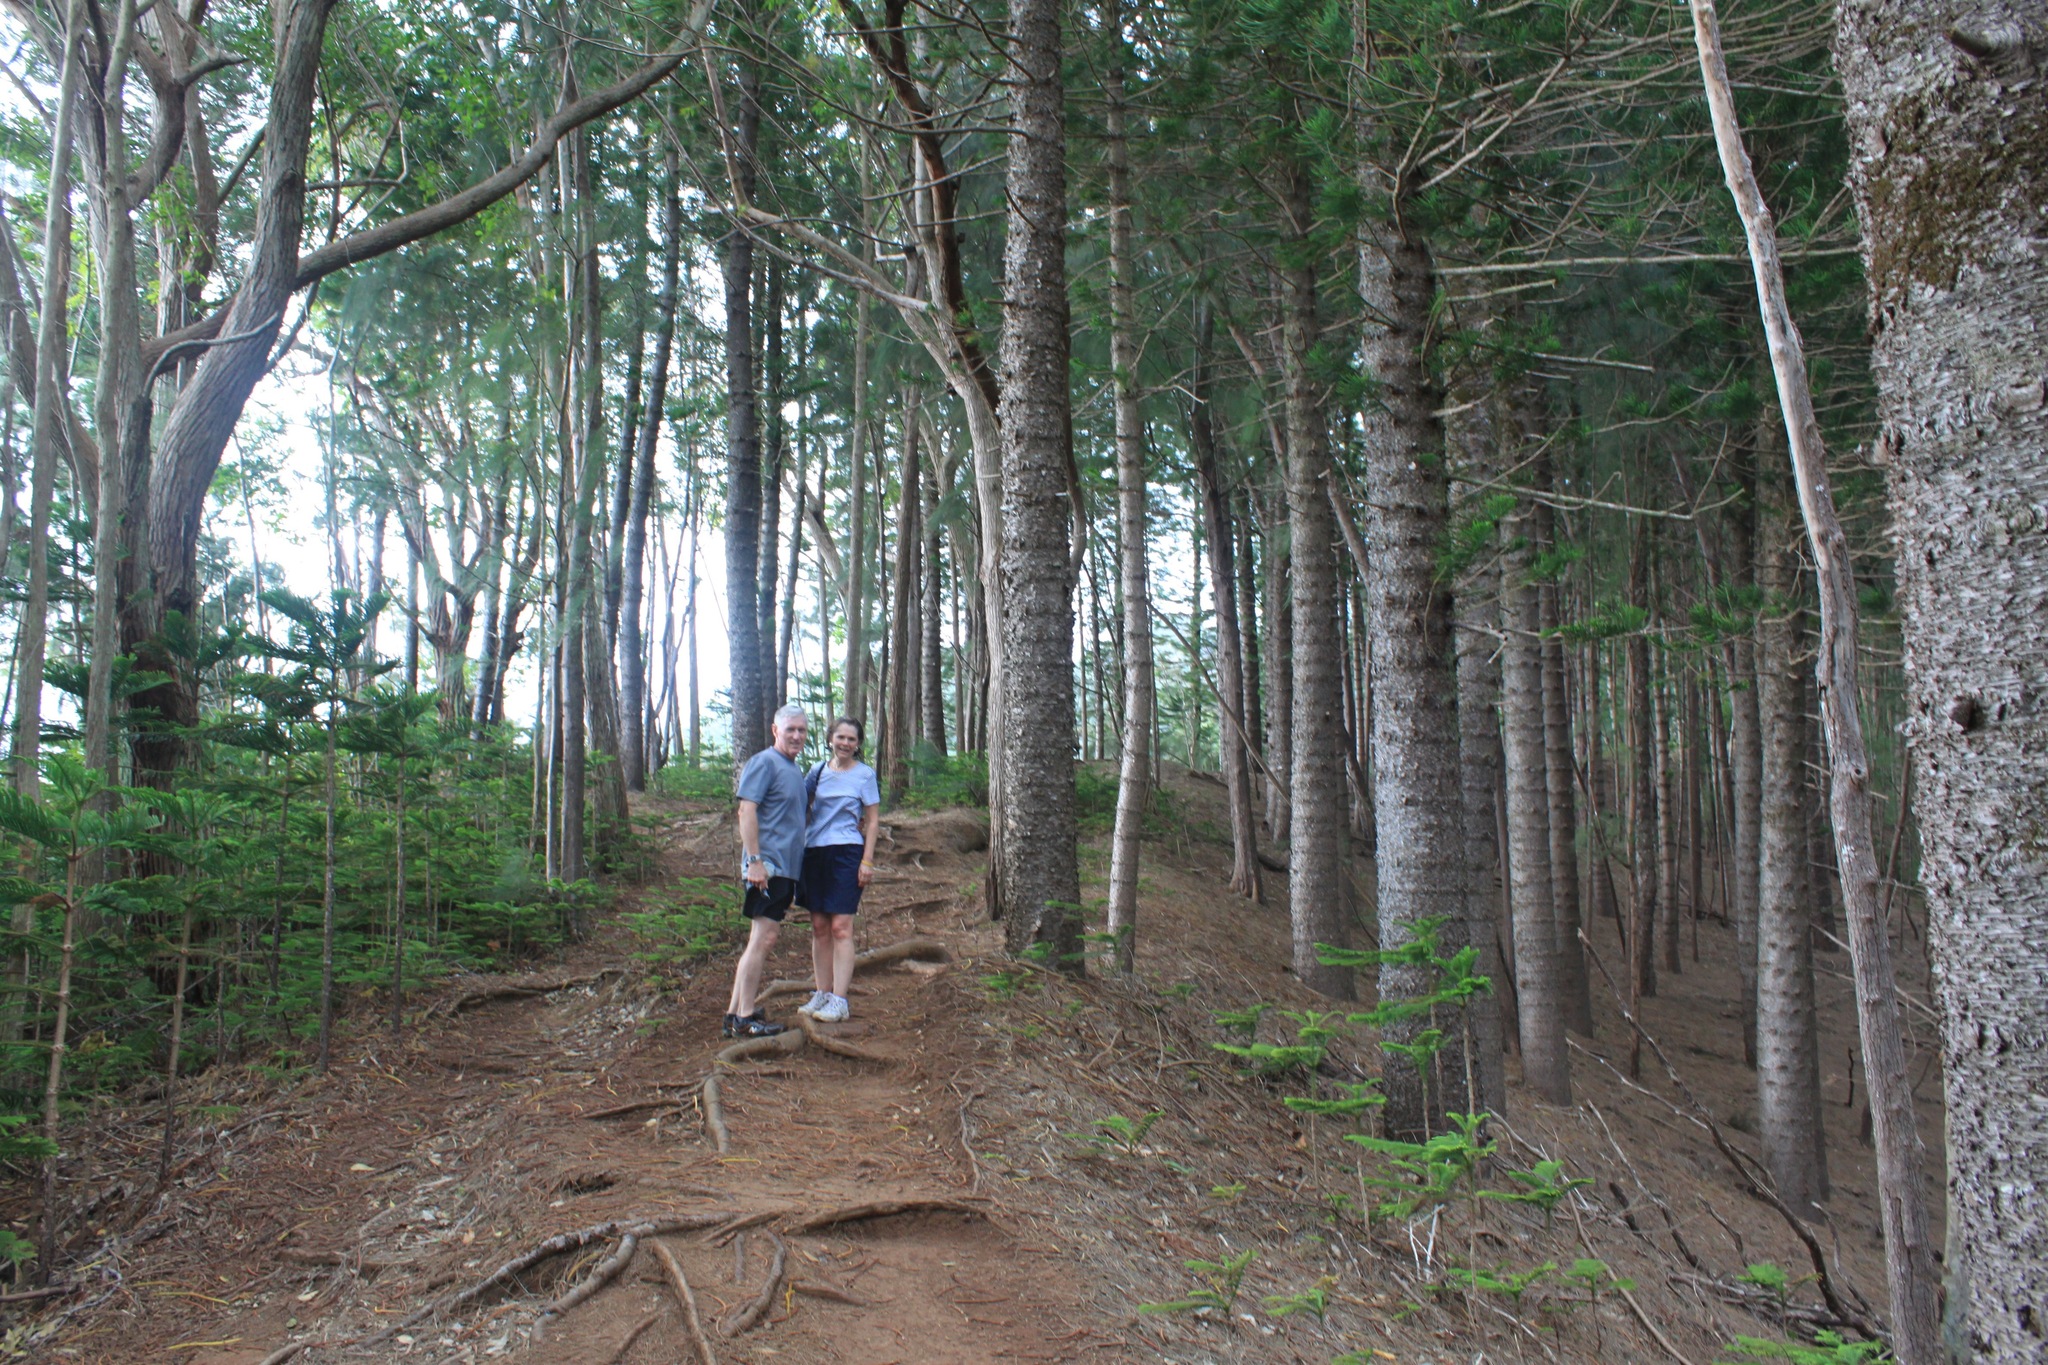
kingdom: Plantae
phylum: Tracheophyta
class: Pinopsida
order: Pinales
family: Araucariaceae
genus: Araucaria
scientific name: Araucaria columnaris
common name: Coral reef araucaria
